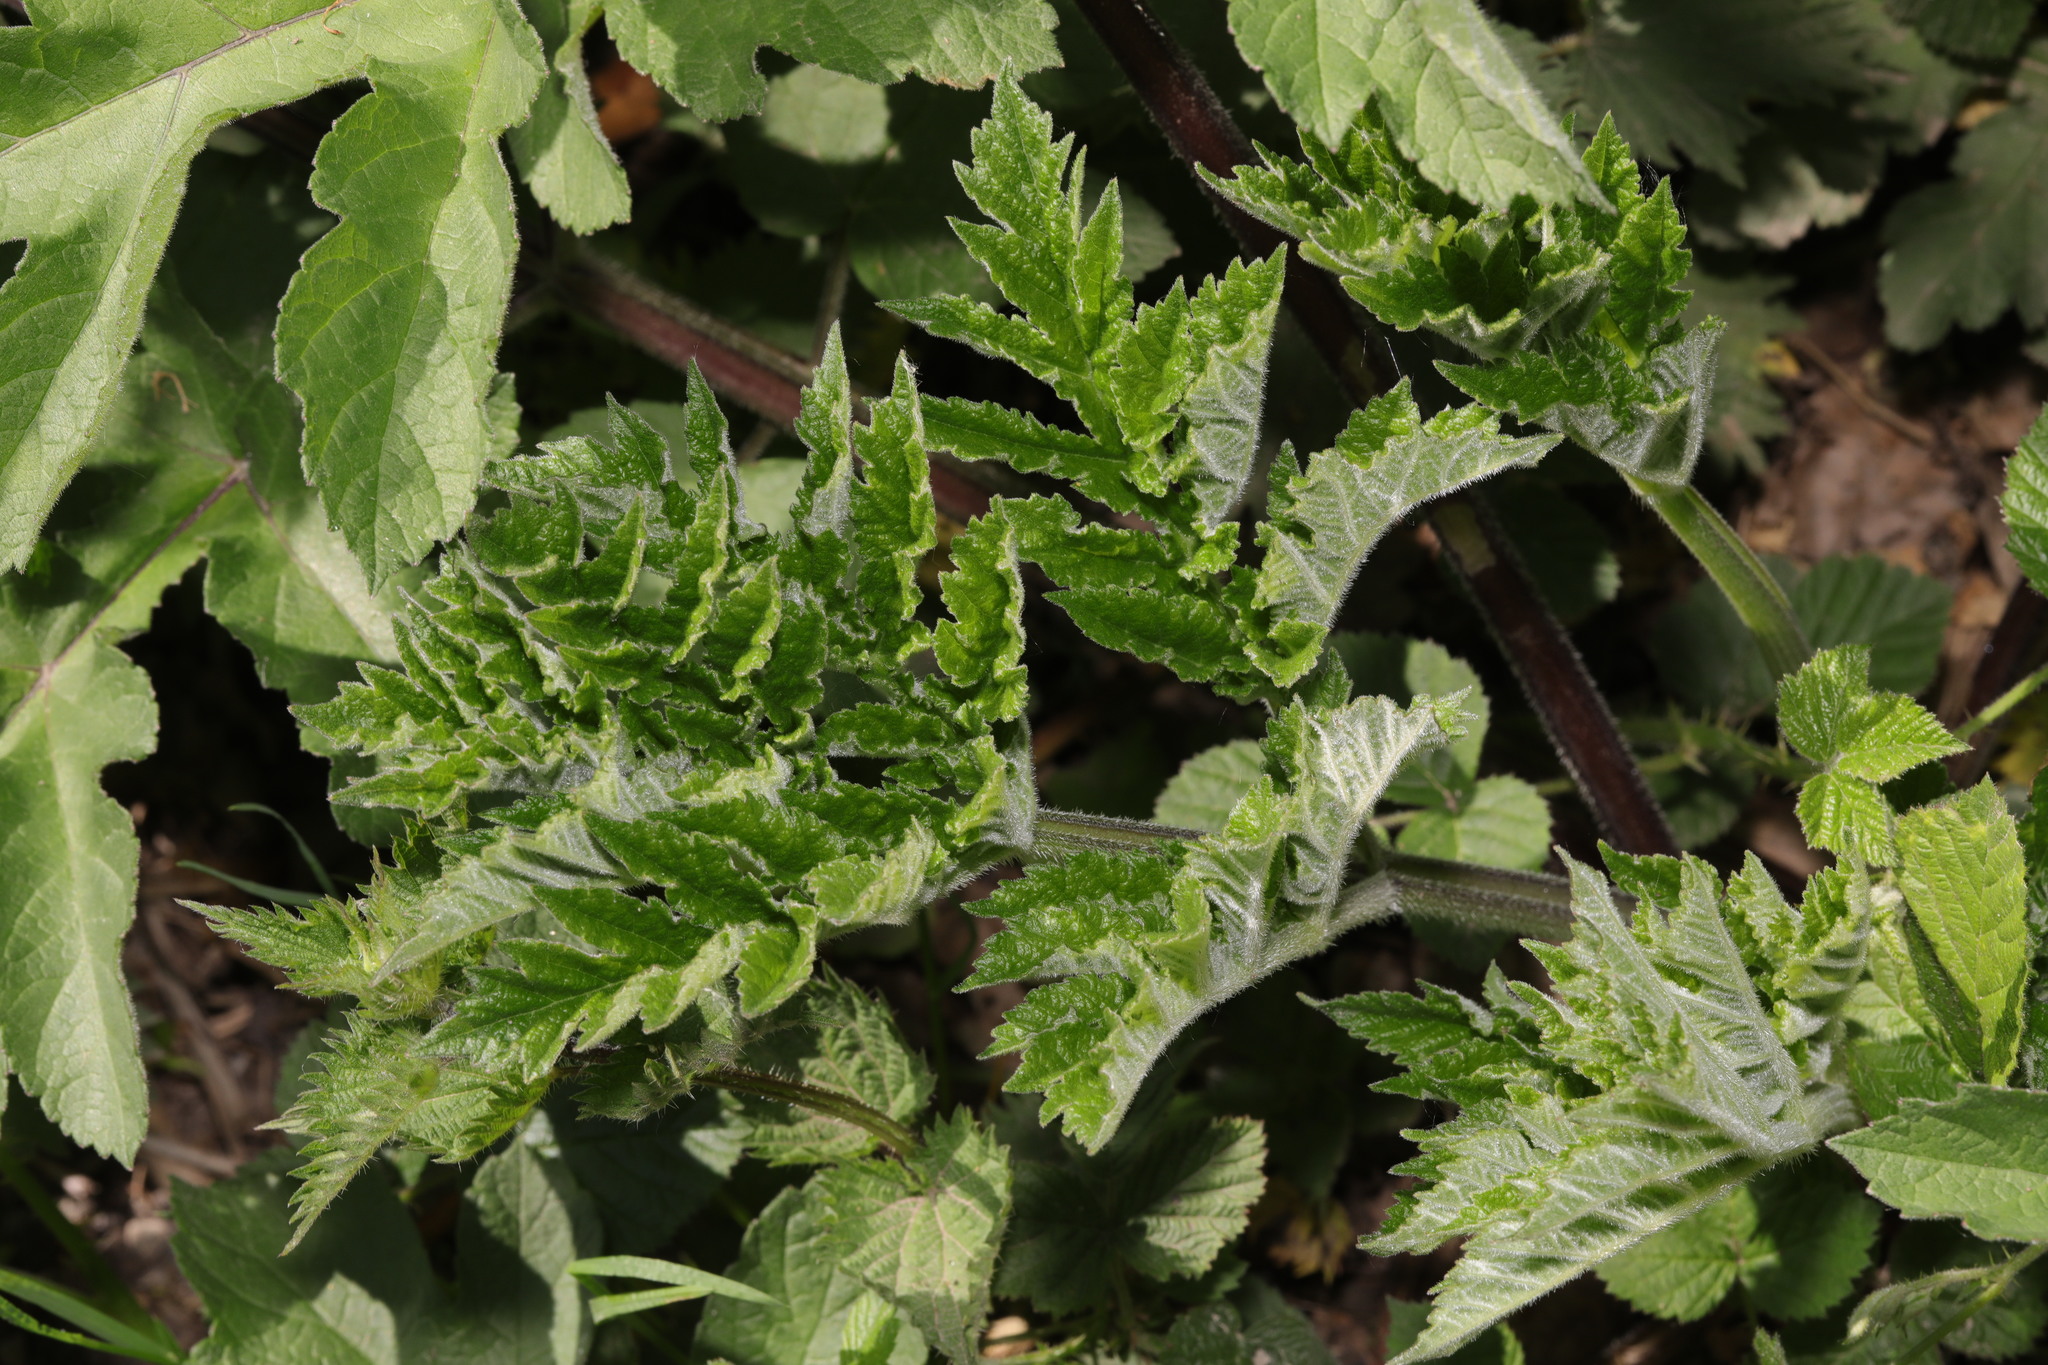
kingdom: Plantae
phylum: Tracheophyta
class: Magnoliopsida
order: Apiales
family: Apiaceae
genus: Heracleum
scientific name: Heracleum sphondylium
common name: Hogweed
